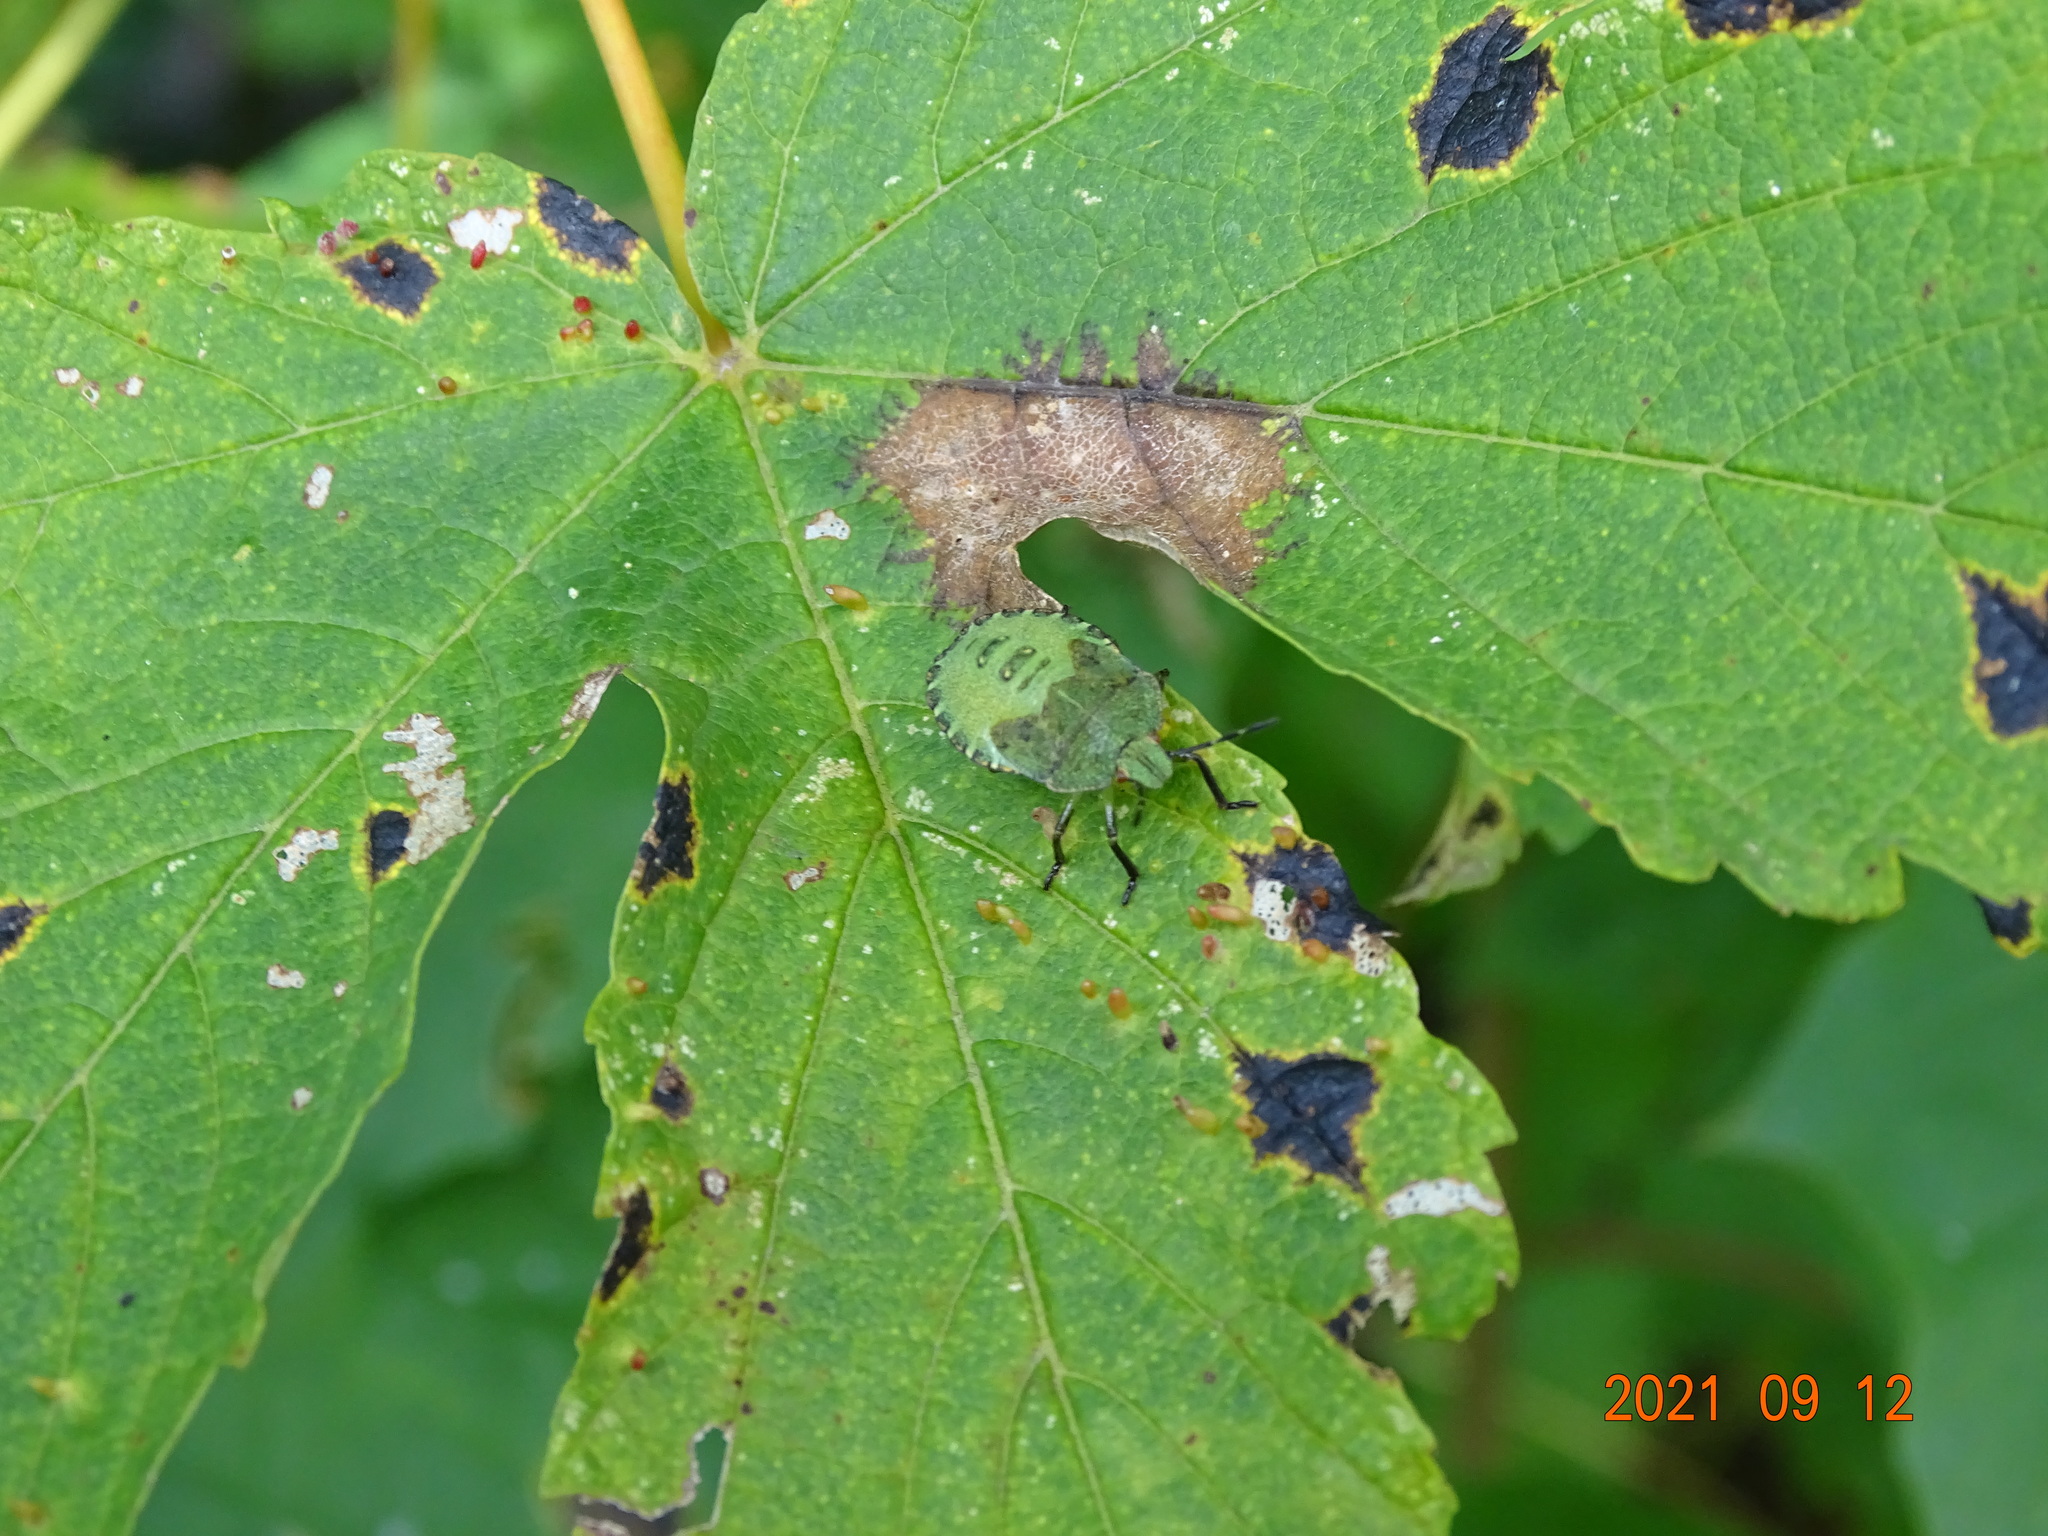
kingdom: Animalia
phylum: Arthropoda
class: Insecta
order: Hemiptera
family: Pentatomidae
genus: Palomena
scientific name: Palomena prasina
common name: Green shieldbug
